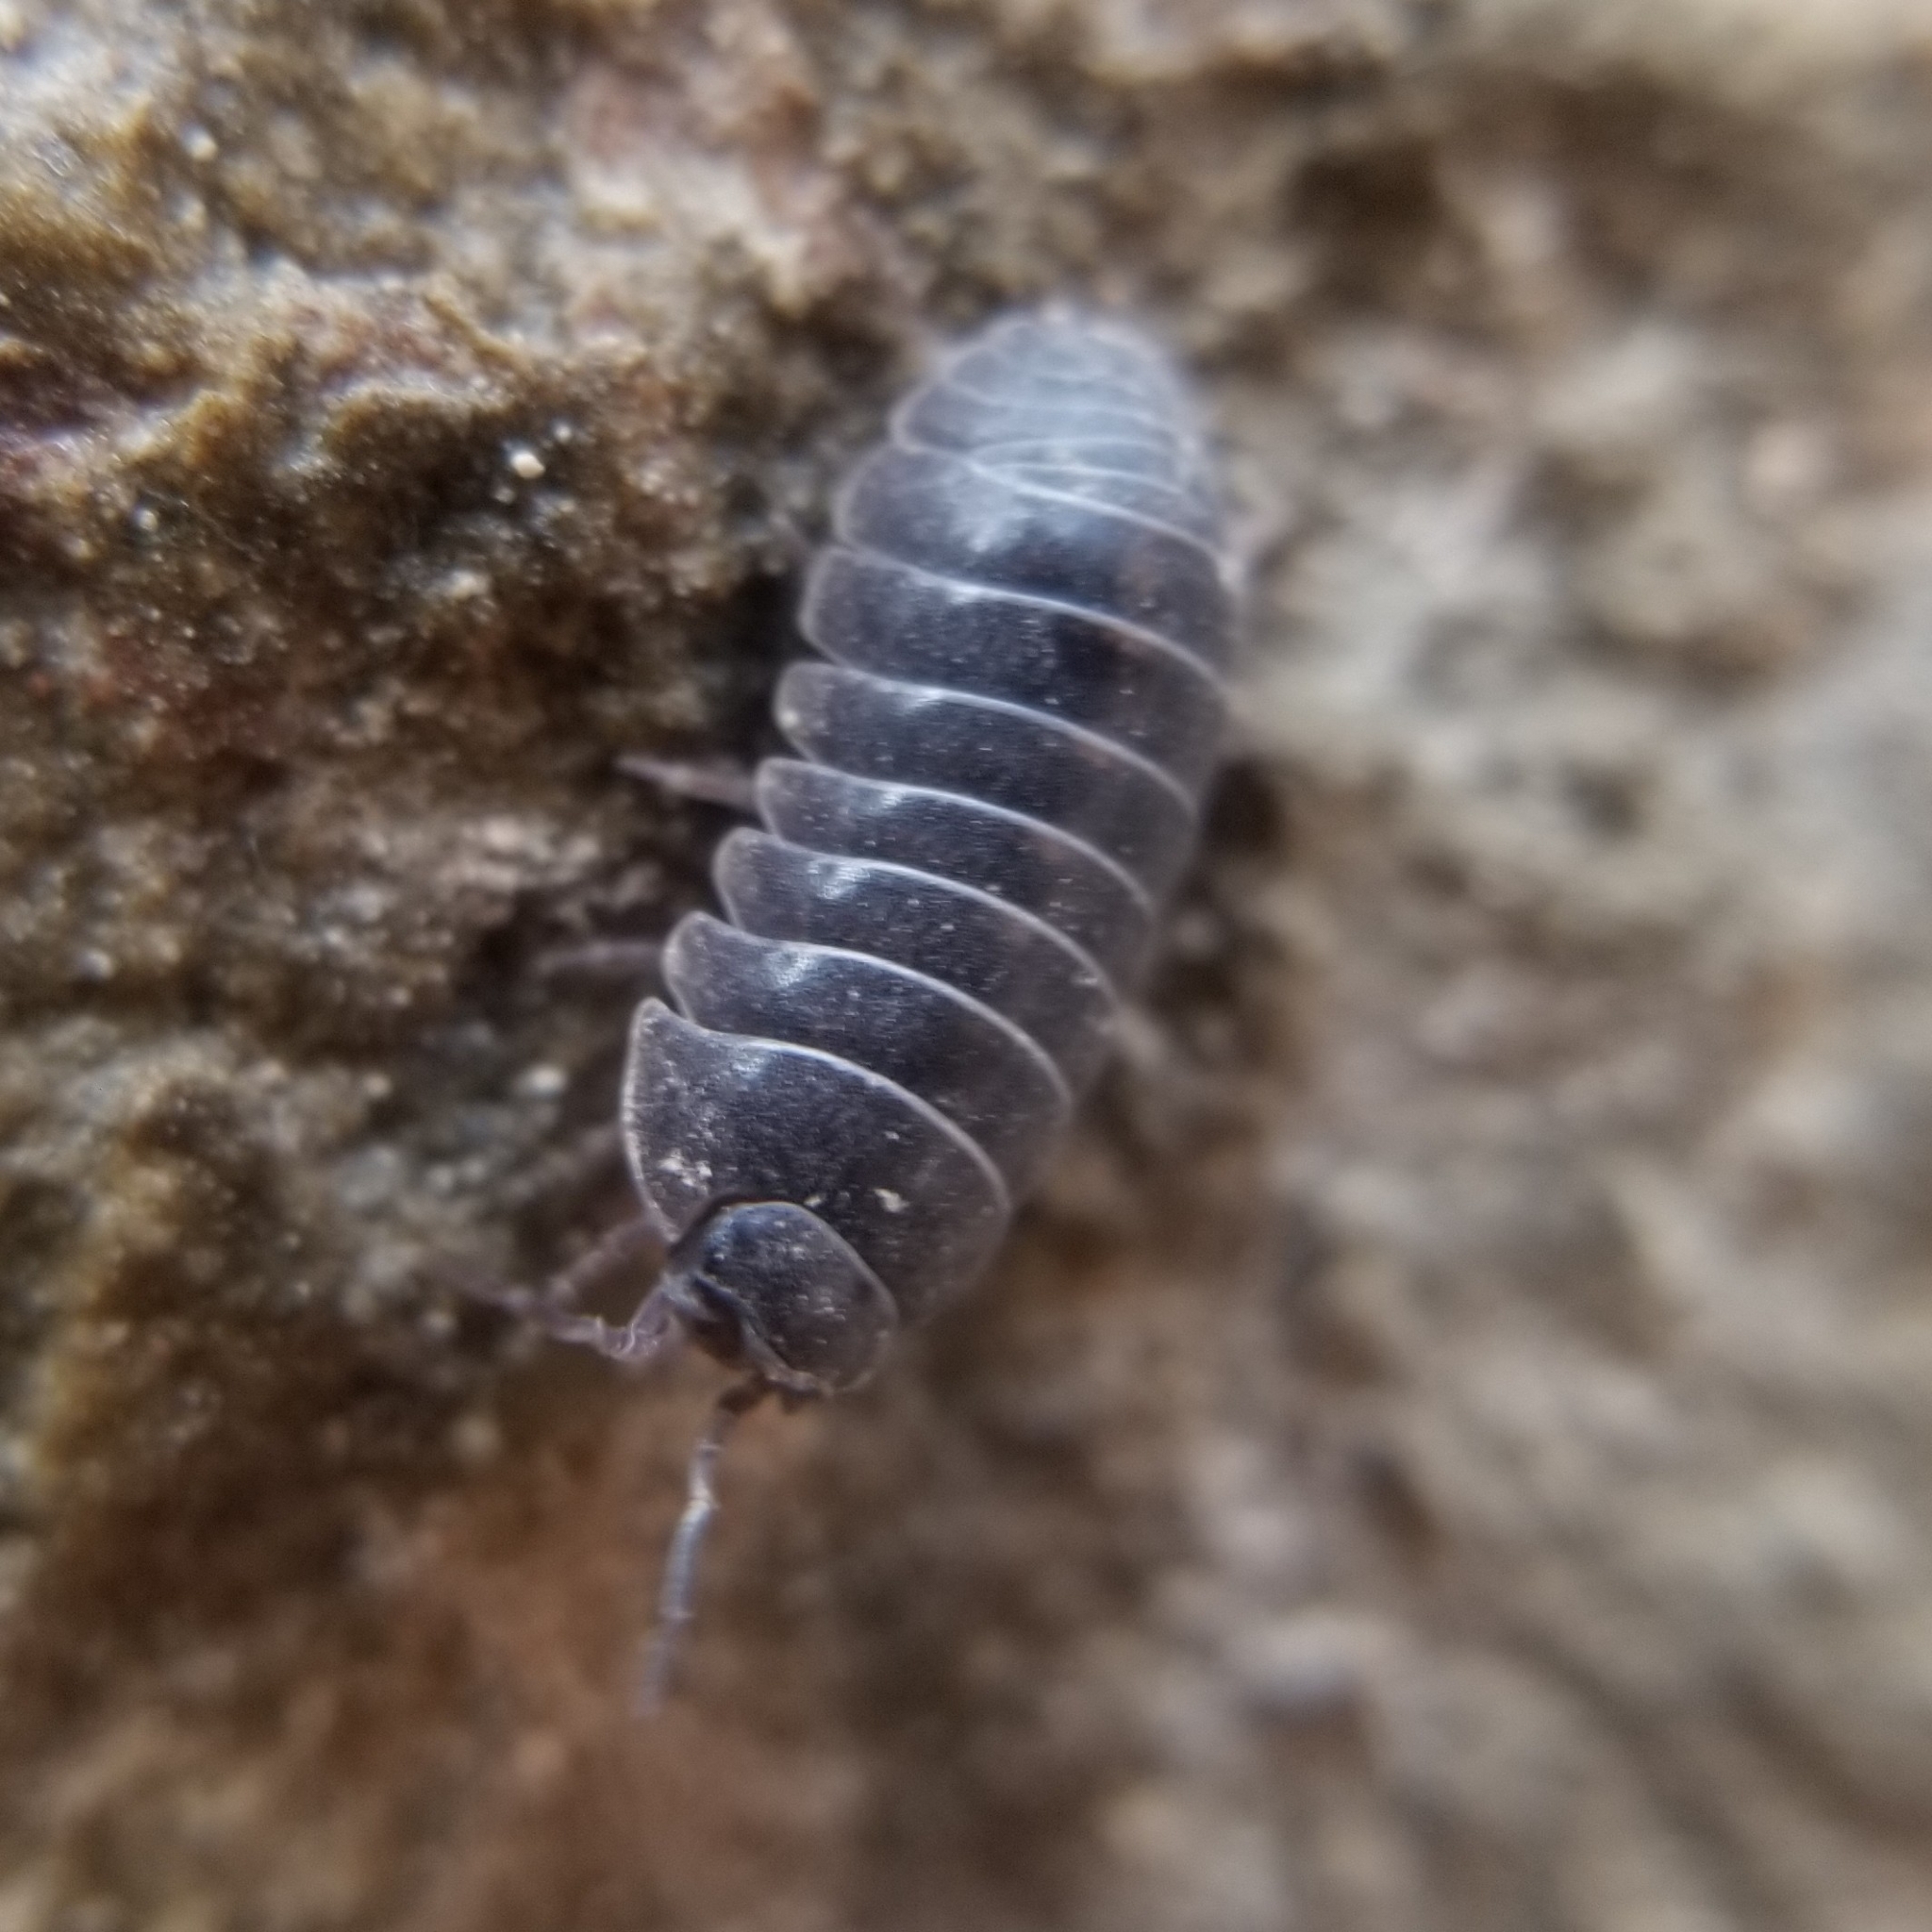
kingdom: Animalia
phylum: Arthropoda
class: Malacostraca
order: Isopoda
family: Armadillidiidae
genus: Armadillidium
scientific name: Armadillidium vulgare
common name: Common pill woodlouse
